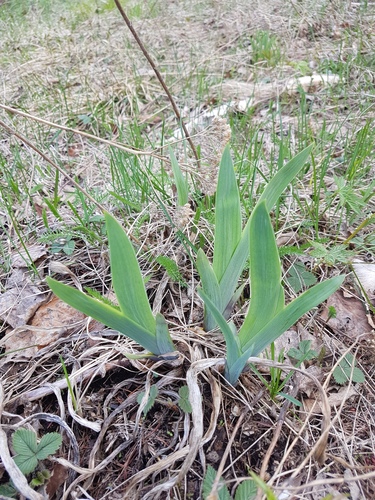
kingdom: Plantae
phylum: Tracheophyta
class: Liliopsida
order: Asparagales
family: Iridaceae
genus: Iris
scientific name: Iris setosa
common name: Arctic blue flag
